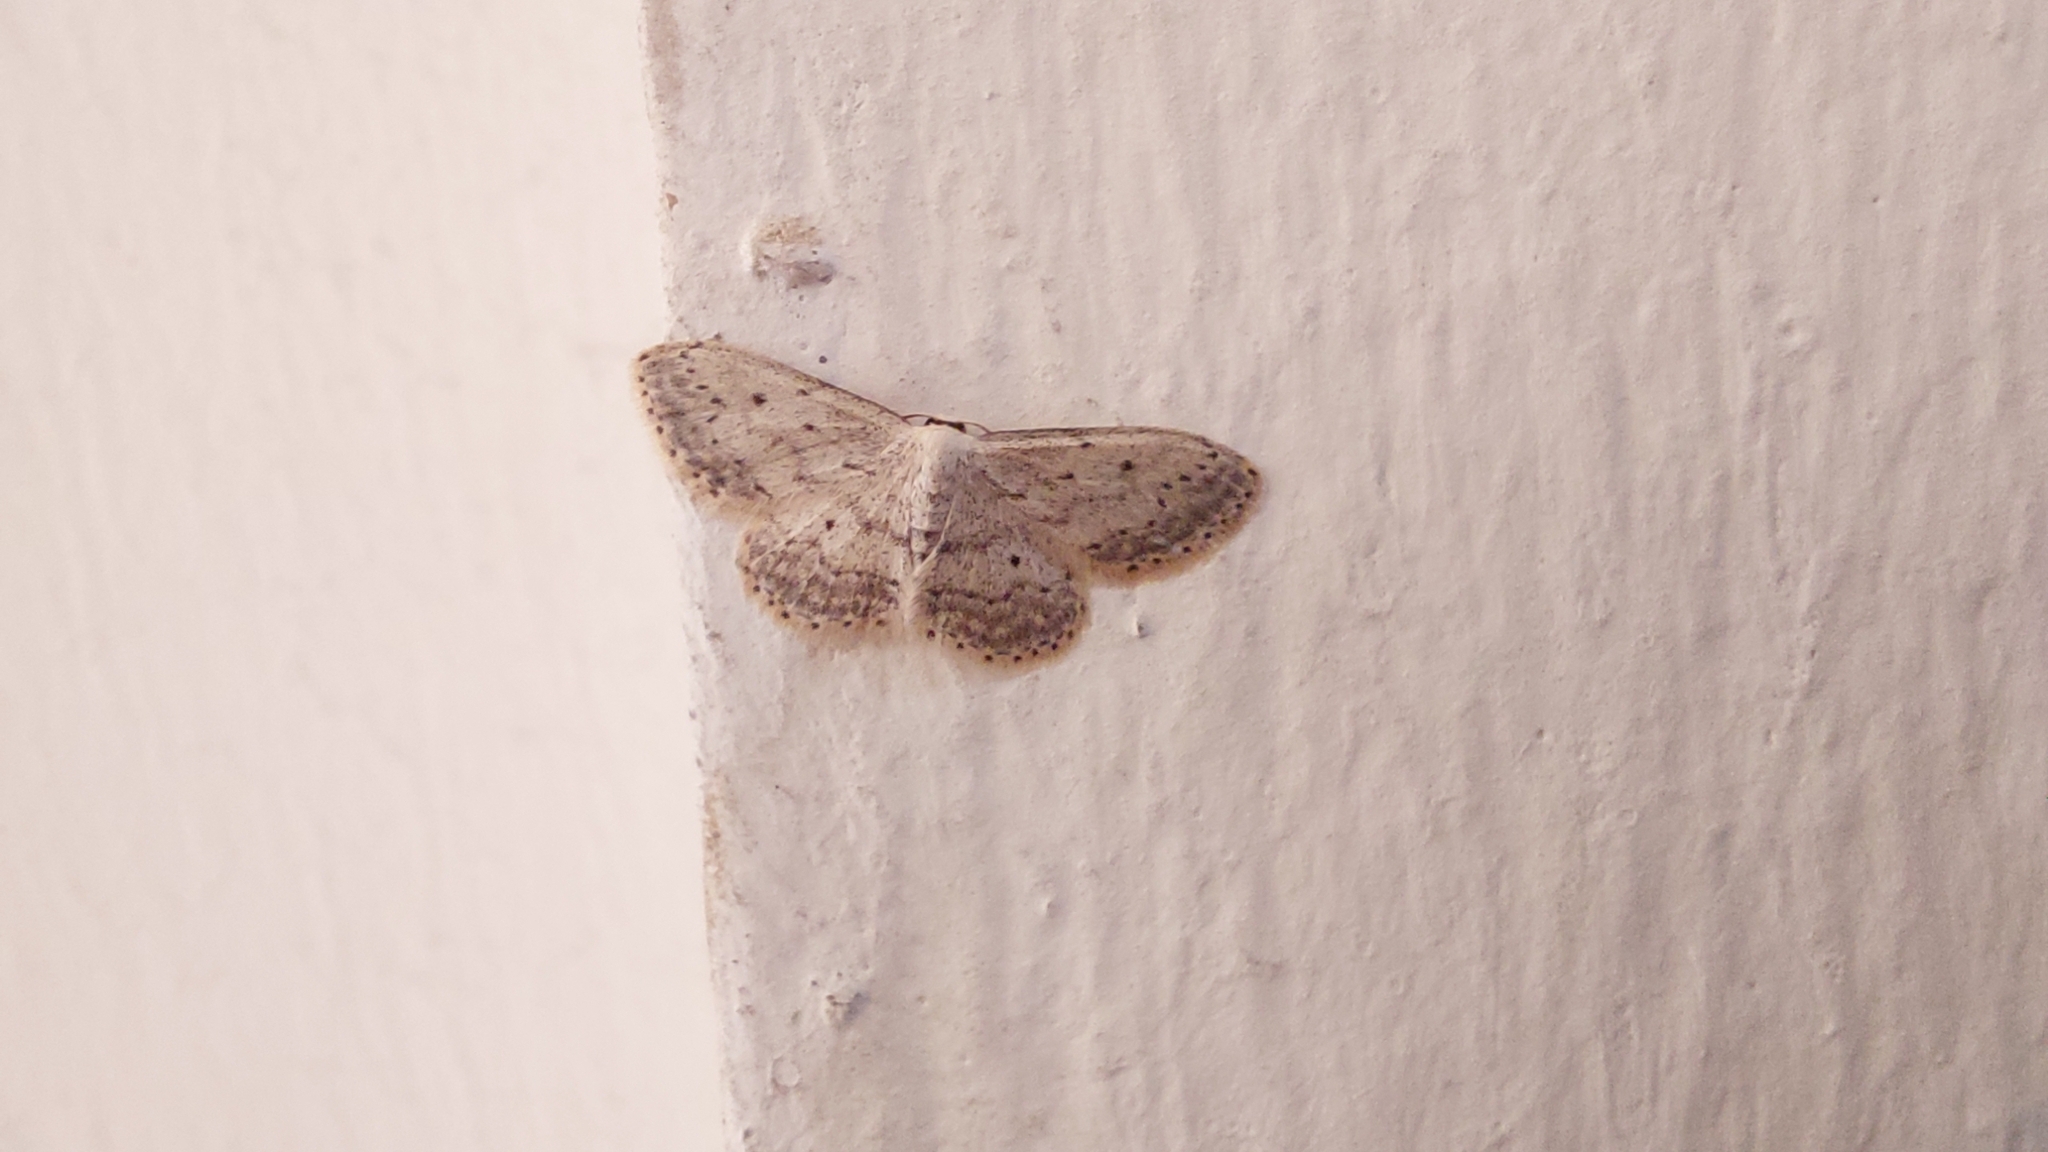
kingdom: Animalia
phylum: Arthropoda
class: Insecta
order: Lepidoptera
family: Geometridae
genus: Idaea
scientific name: Idaea seriata
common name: Small dusty wave
